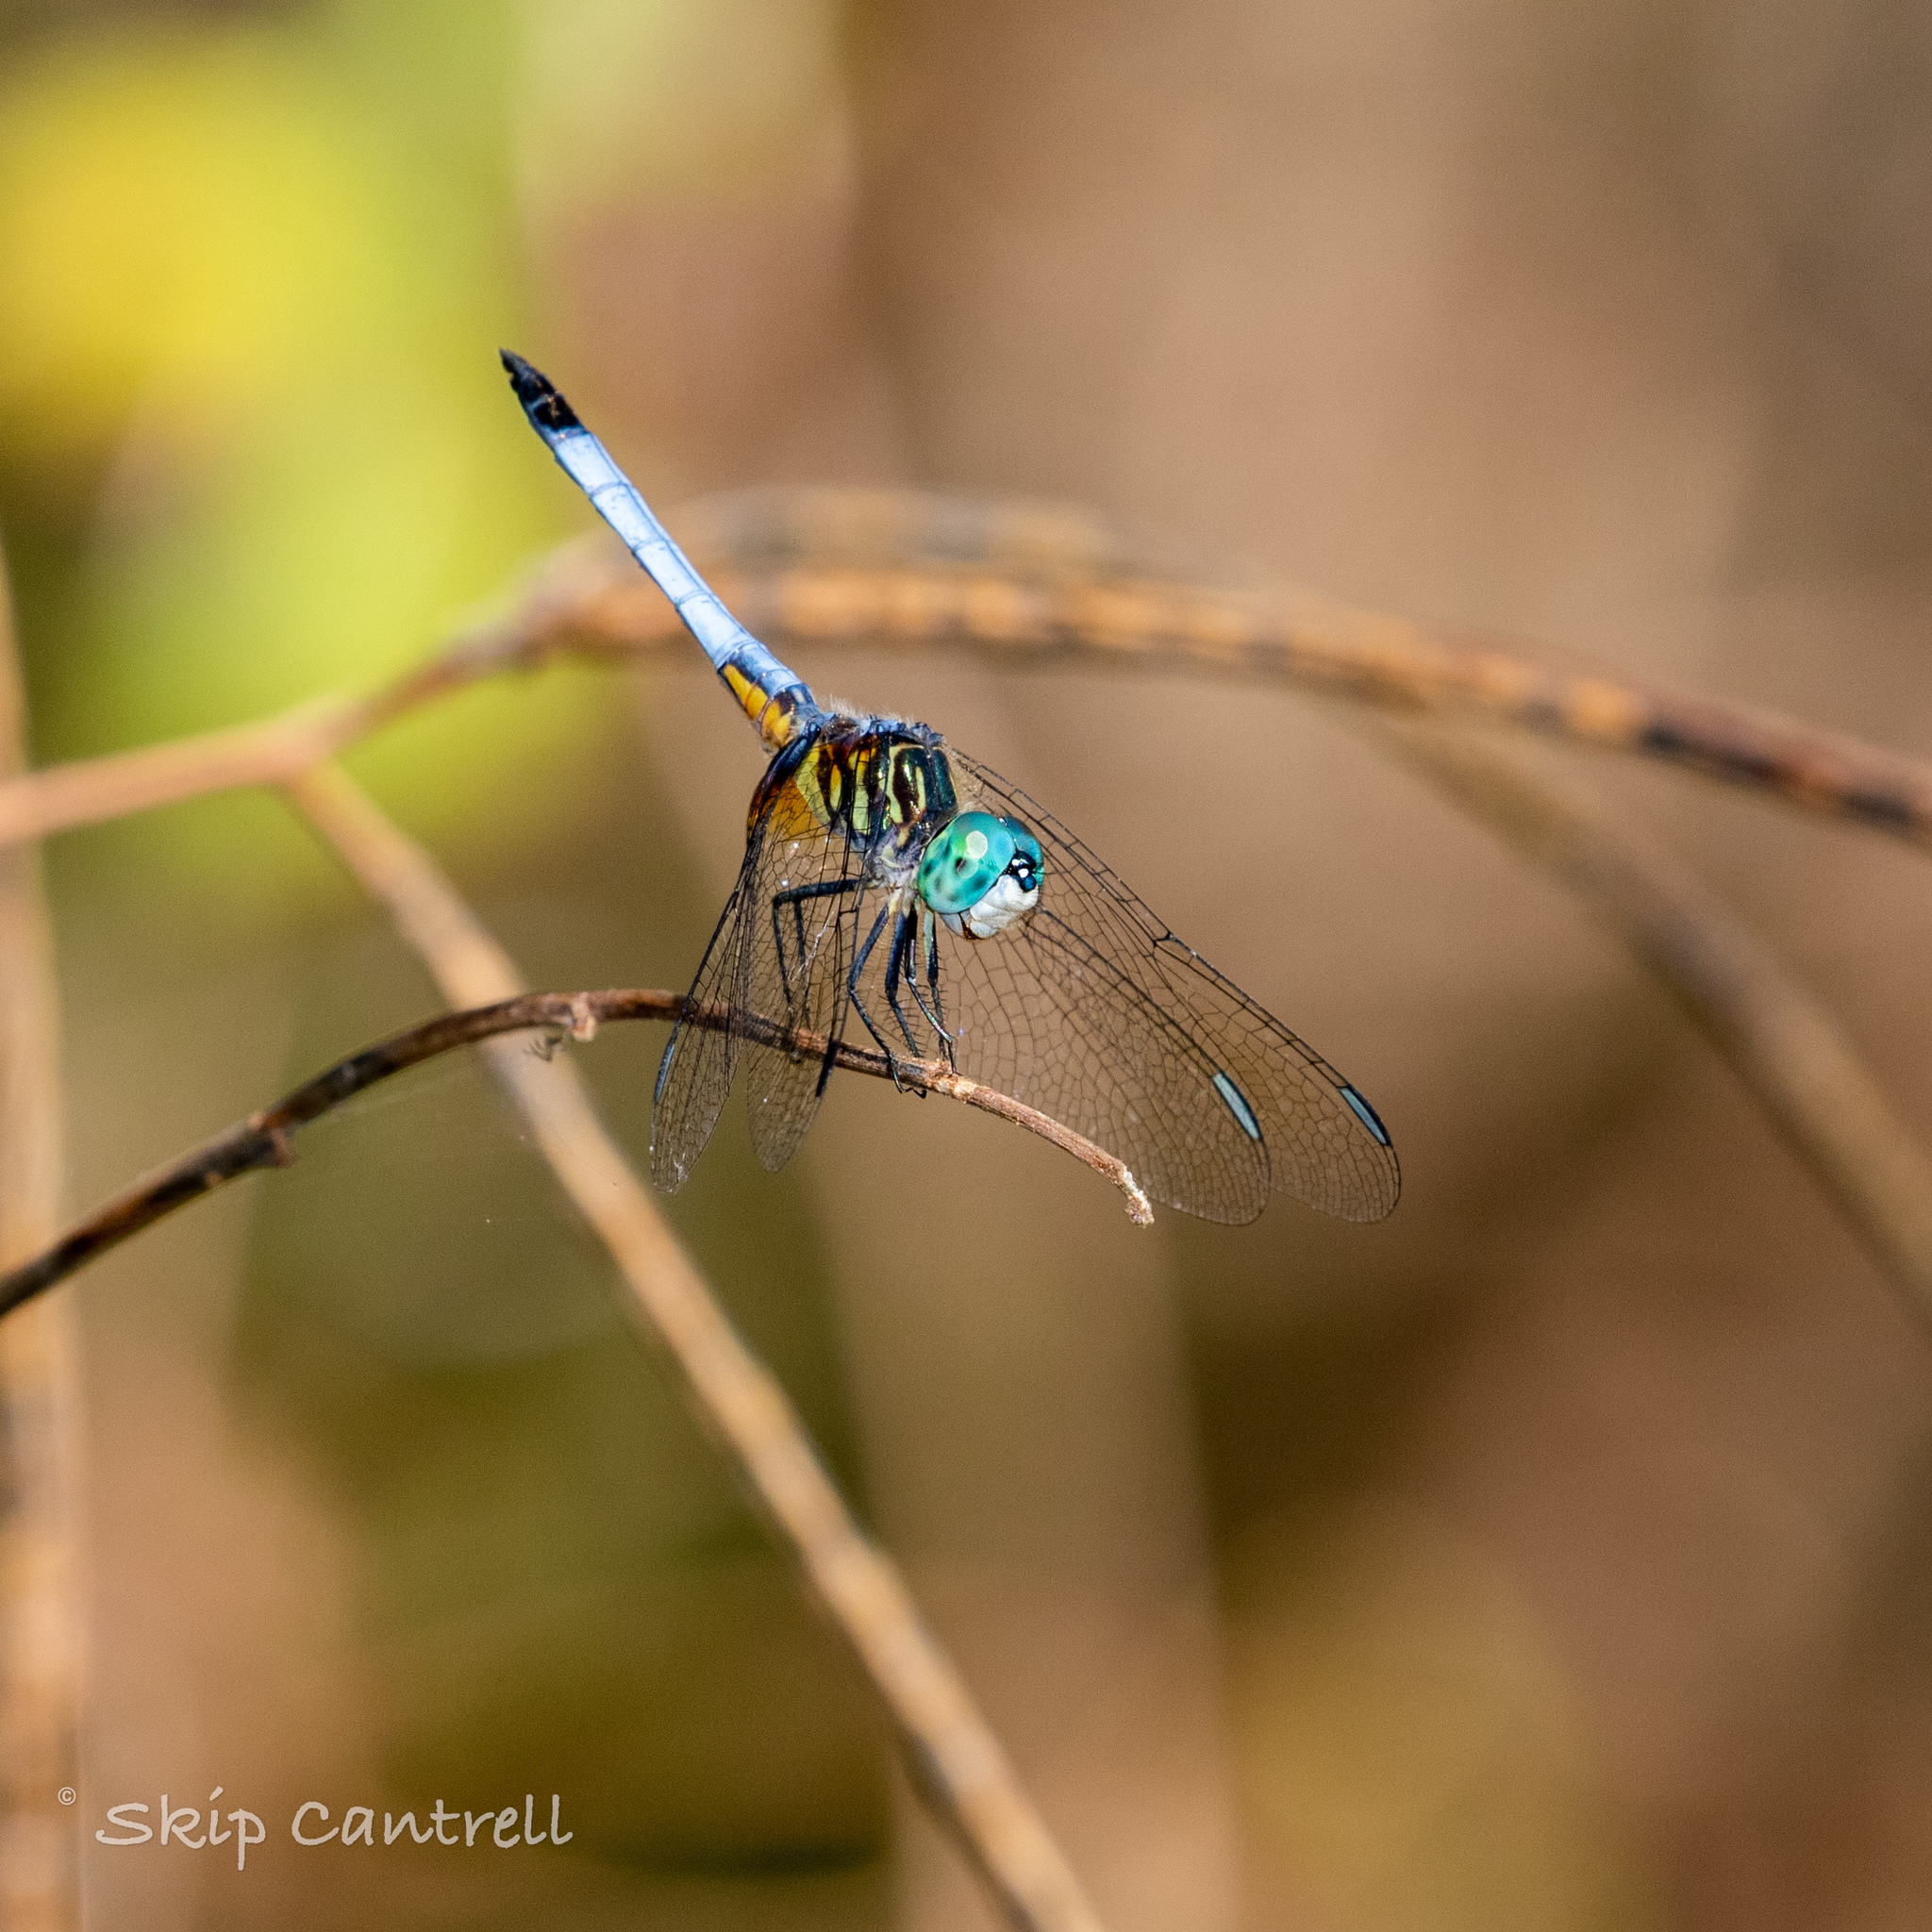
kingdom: Animalia
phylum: Arthropoda
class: Insecta
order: Odonata
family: Libellulidae
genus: Pachydiplax
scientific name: Pachydiplax longipennis
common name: Blue dasher
